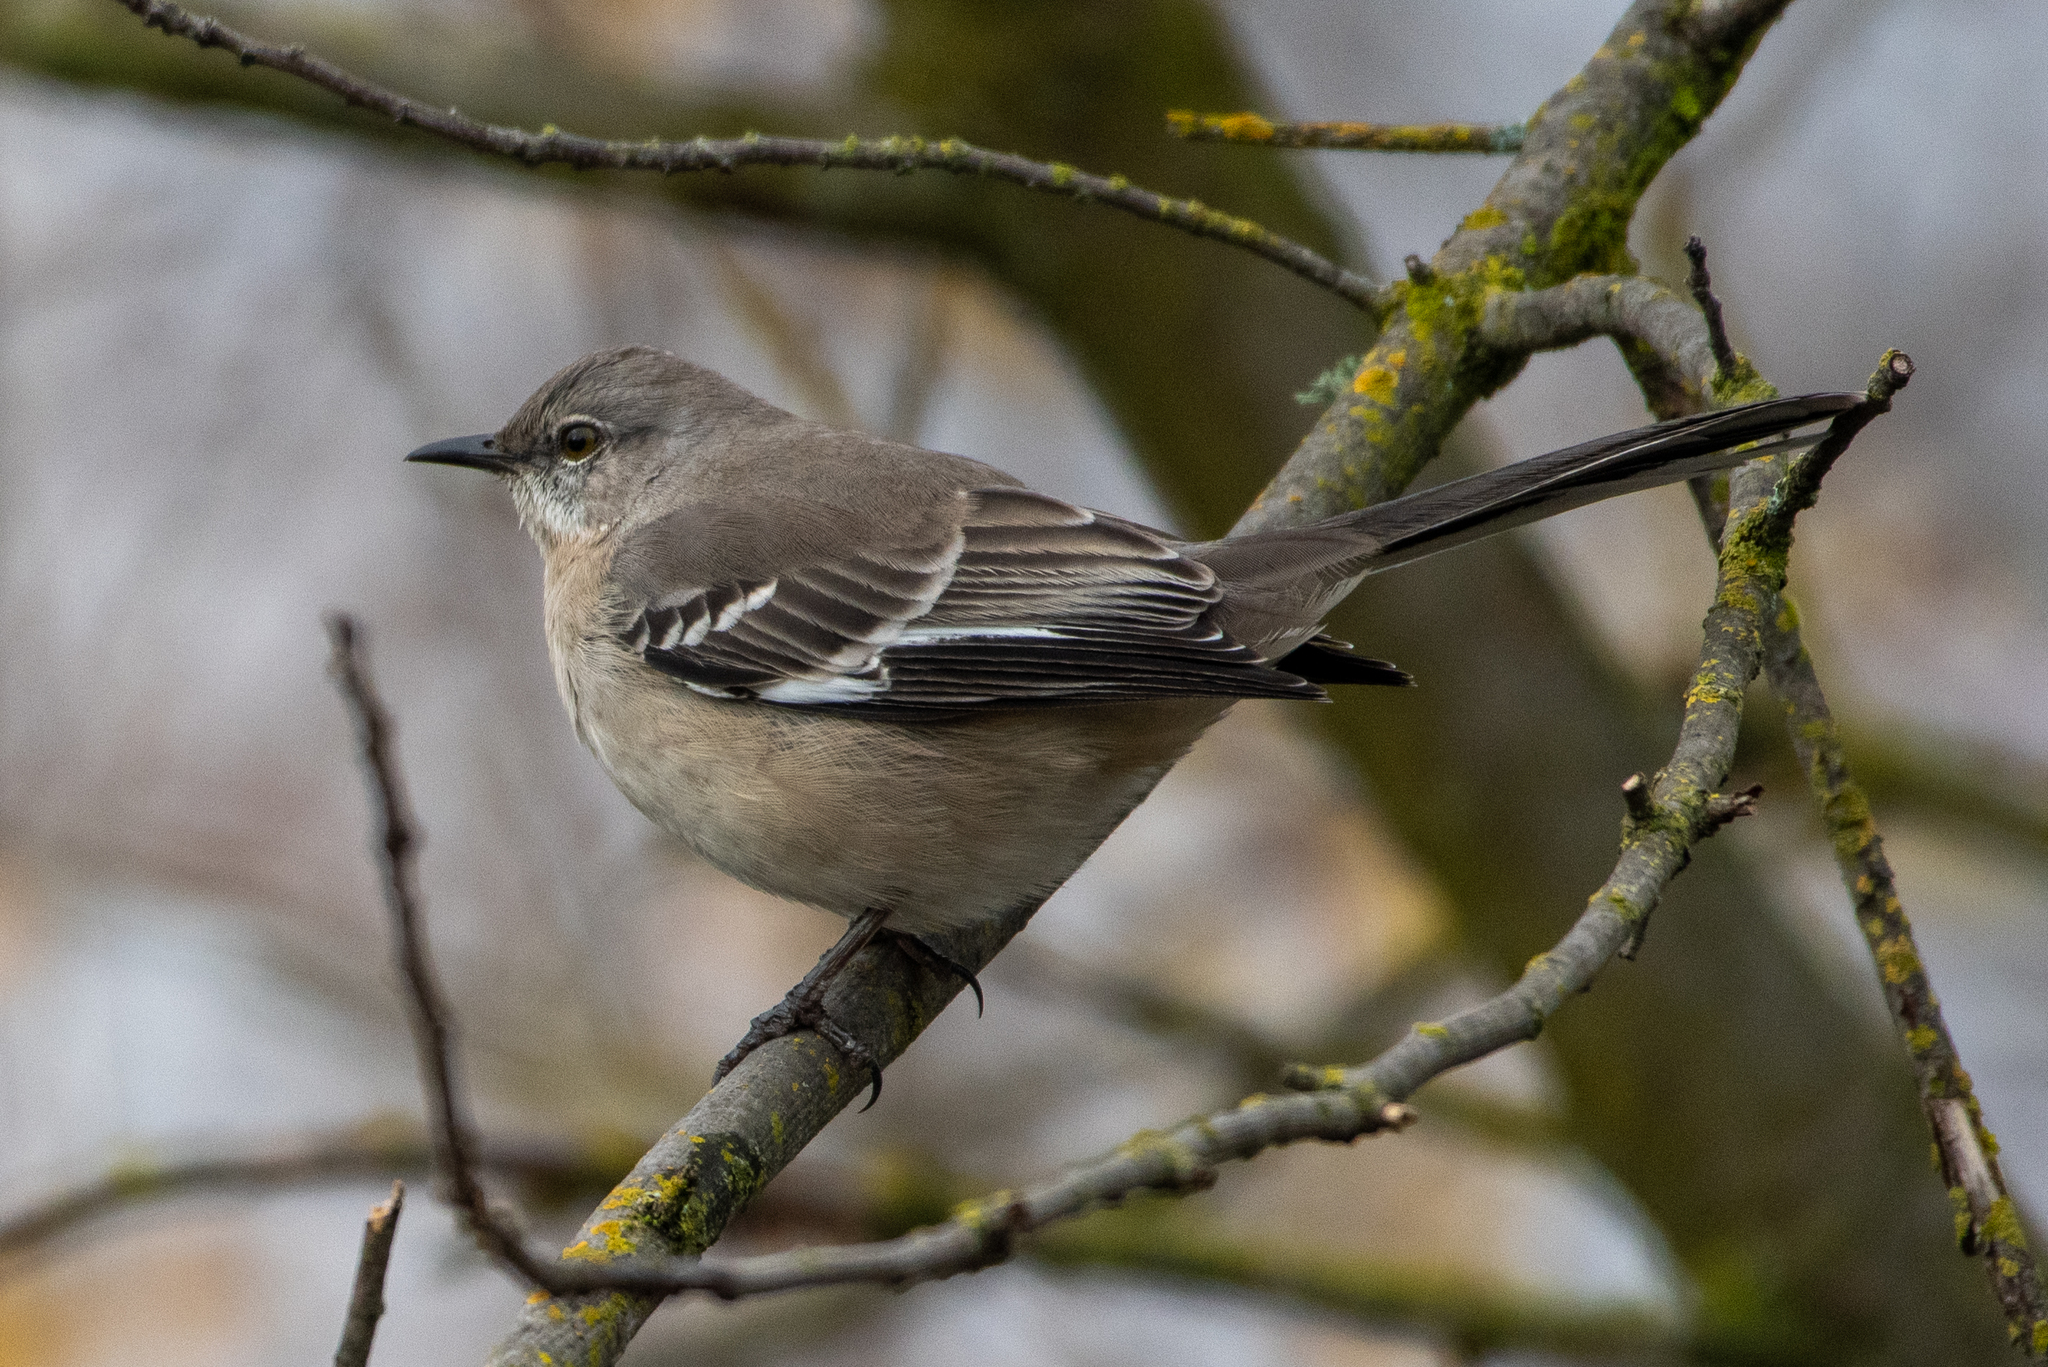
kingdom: Animalia
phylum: Chordata
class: Aves
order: Passeriformes
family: Mimidae
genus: Mimus
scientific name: Mimus polyglottos
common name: Northern mockingbird
